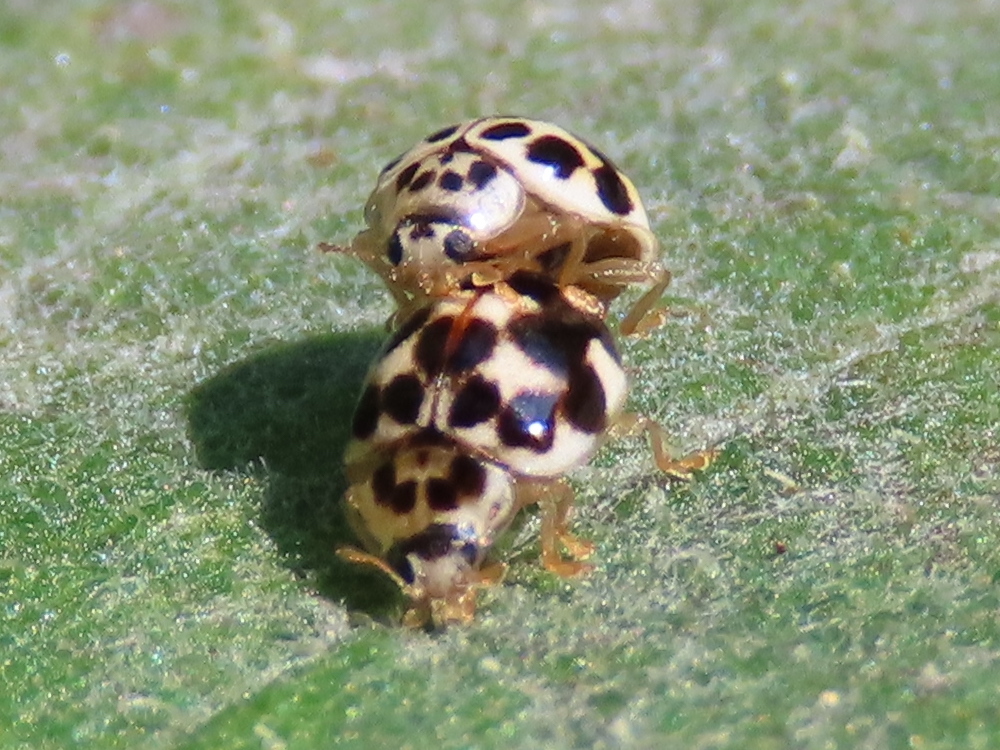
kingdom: Animalia
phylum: Arthropoda
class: Insecta
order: Coleoptera
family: Coccinellidae
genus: Psyllobora
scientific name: Psyllobora vigintimaculata
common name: Ladybird beetle
